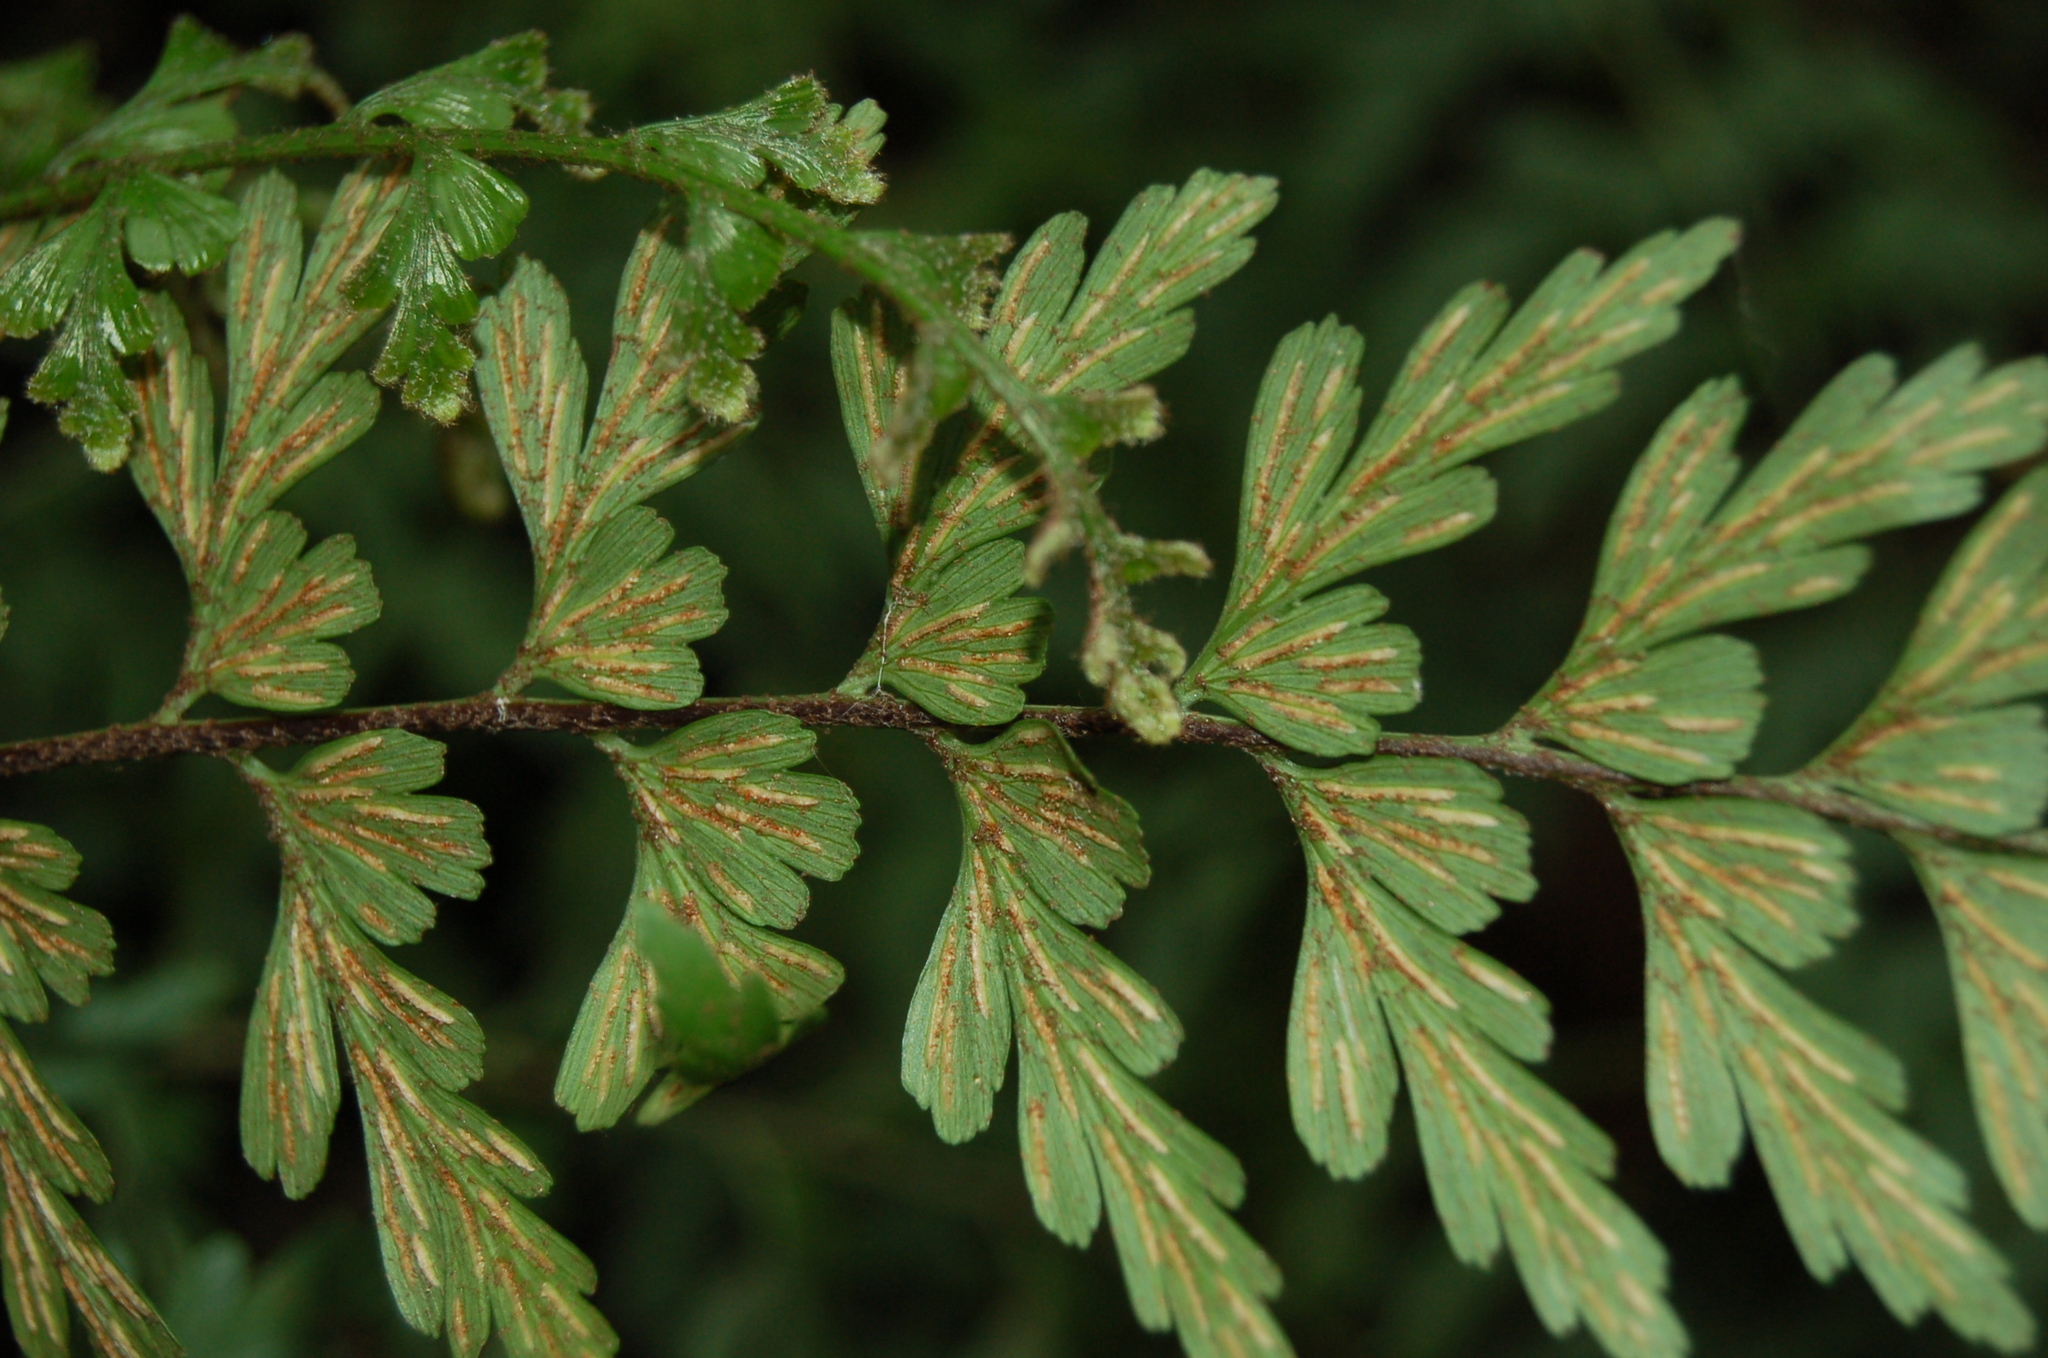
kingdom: Plantae
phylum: Tracheophyta
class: Polypodiopsida
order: Polypodiales
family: Aspleniaceae
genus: Asplenium
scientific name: Asplenium praemorsum
